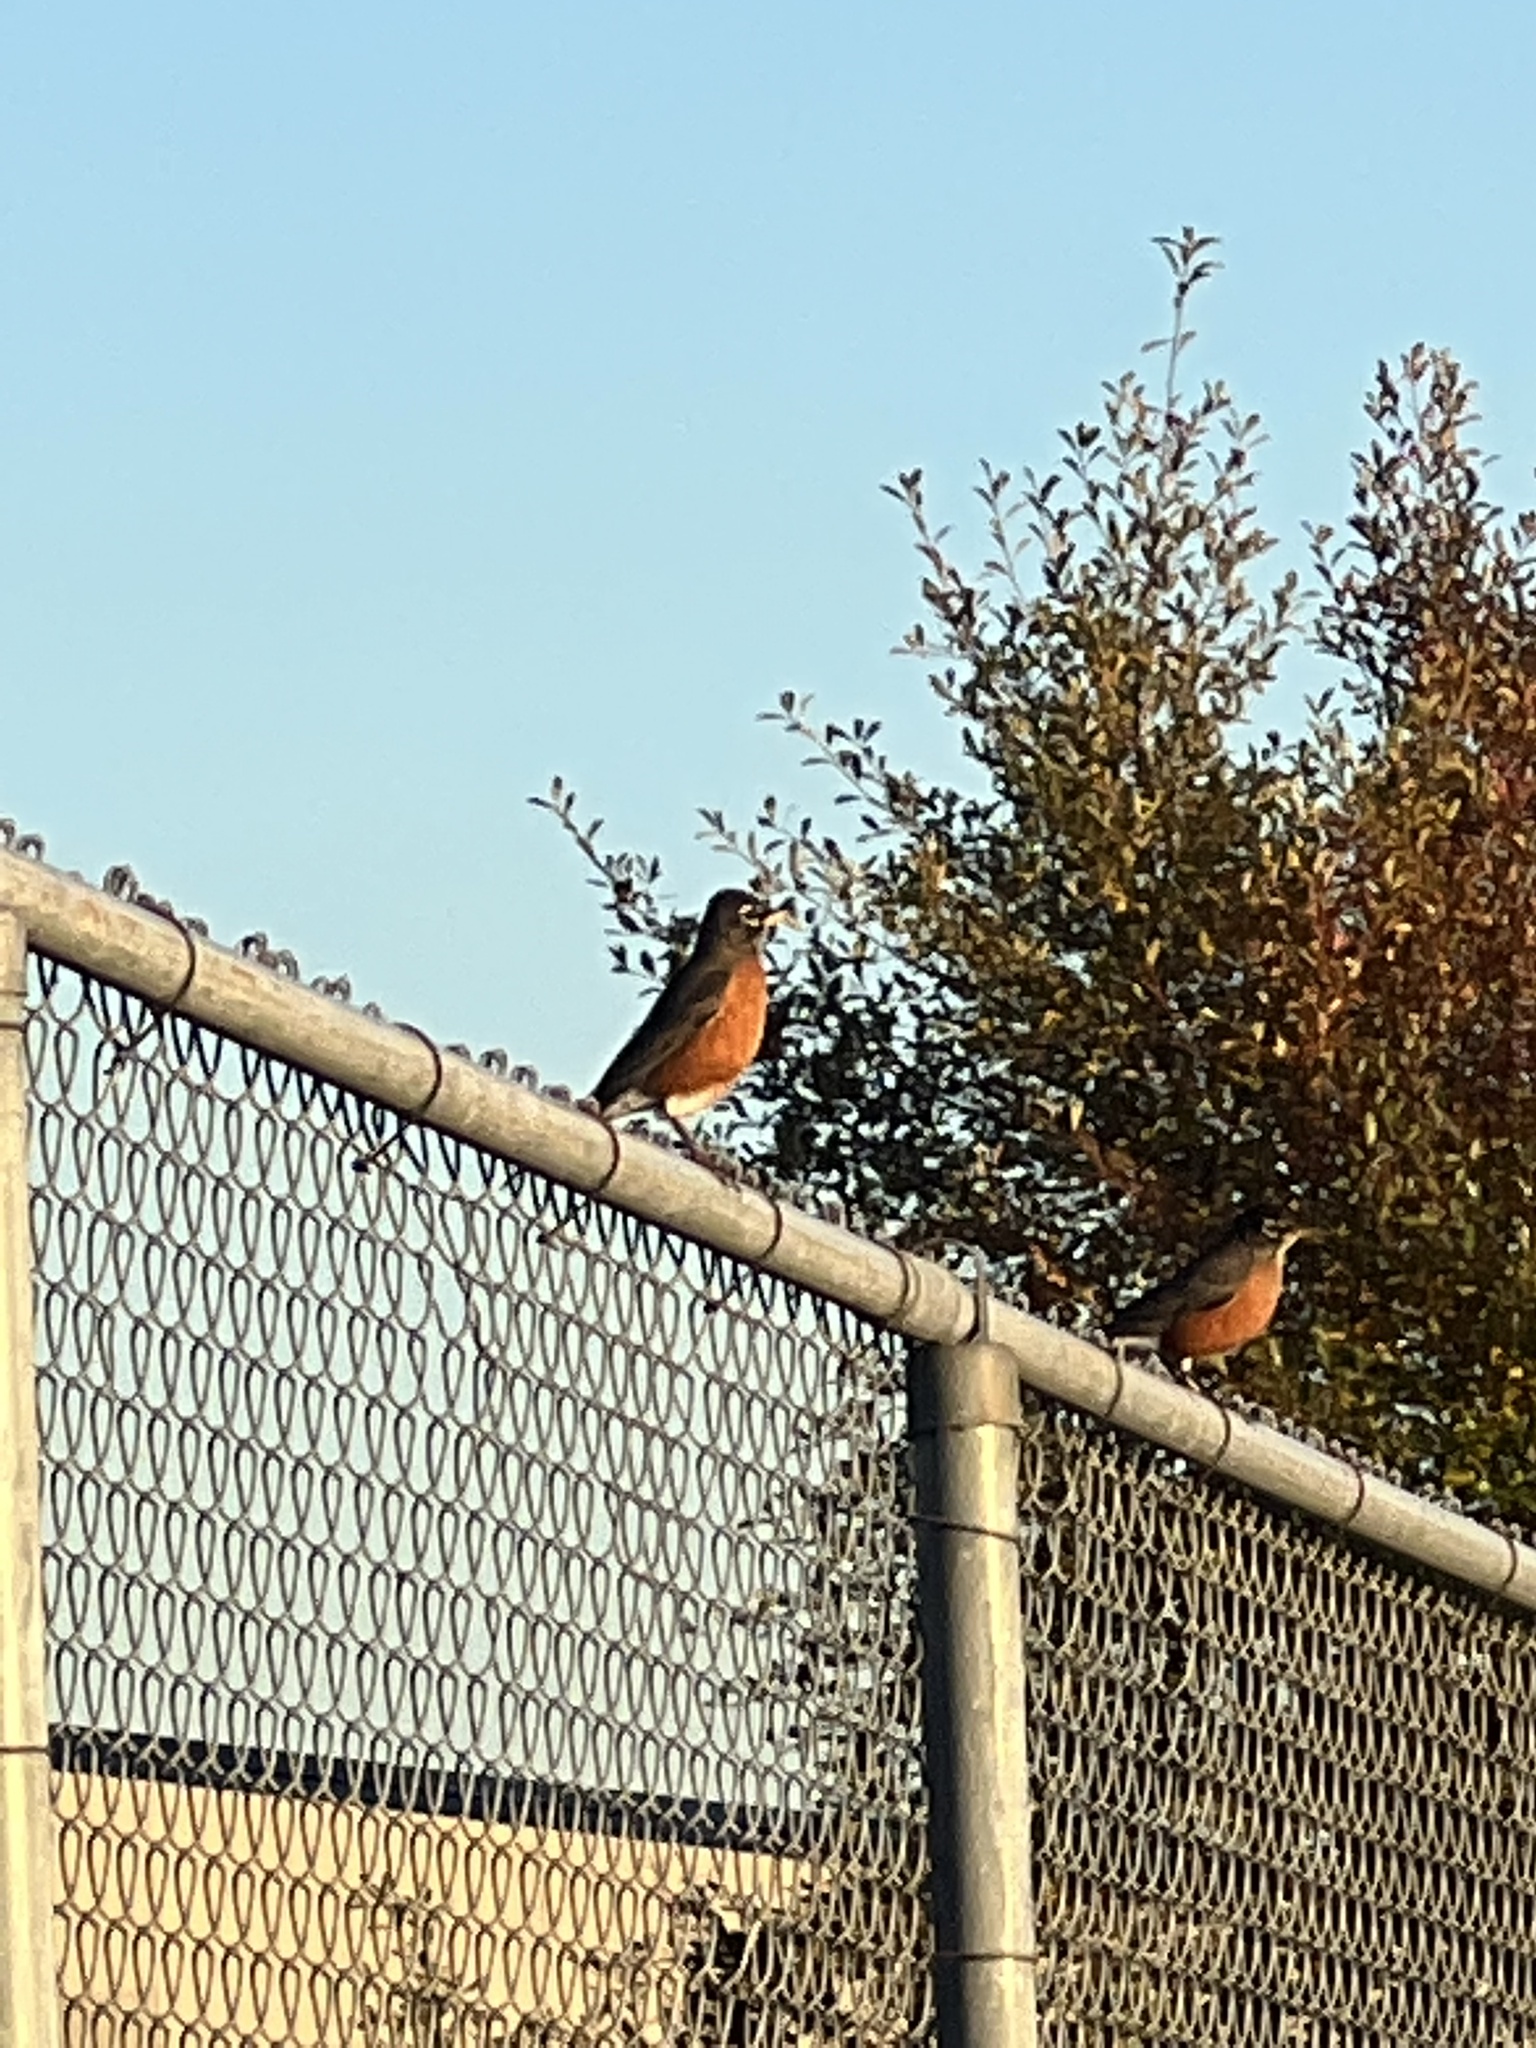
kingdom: Animalia
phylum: Chordata
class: Aves
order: Passeriformes
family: Turdidae
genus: Turdus
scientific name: Turdus migratorius
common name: American robin
